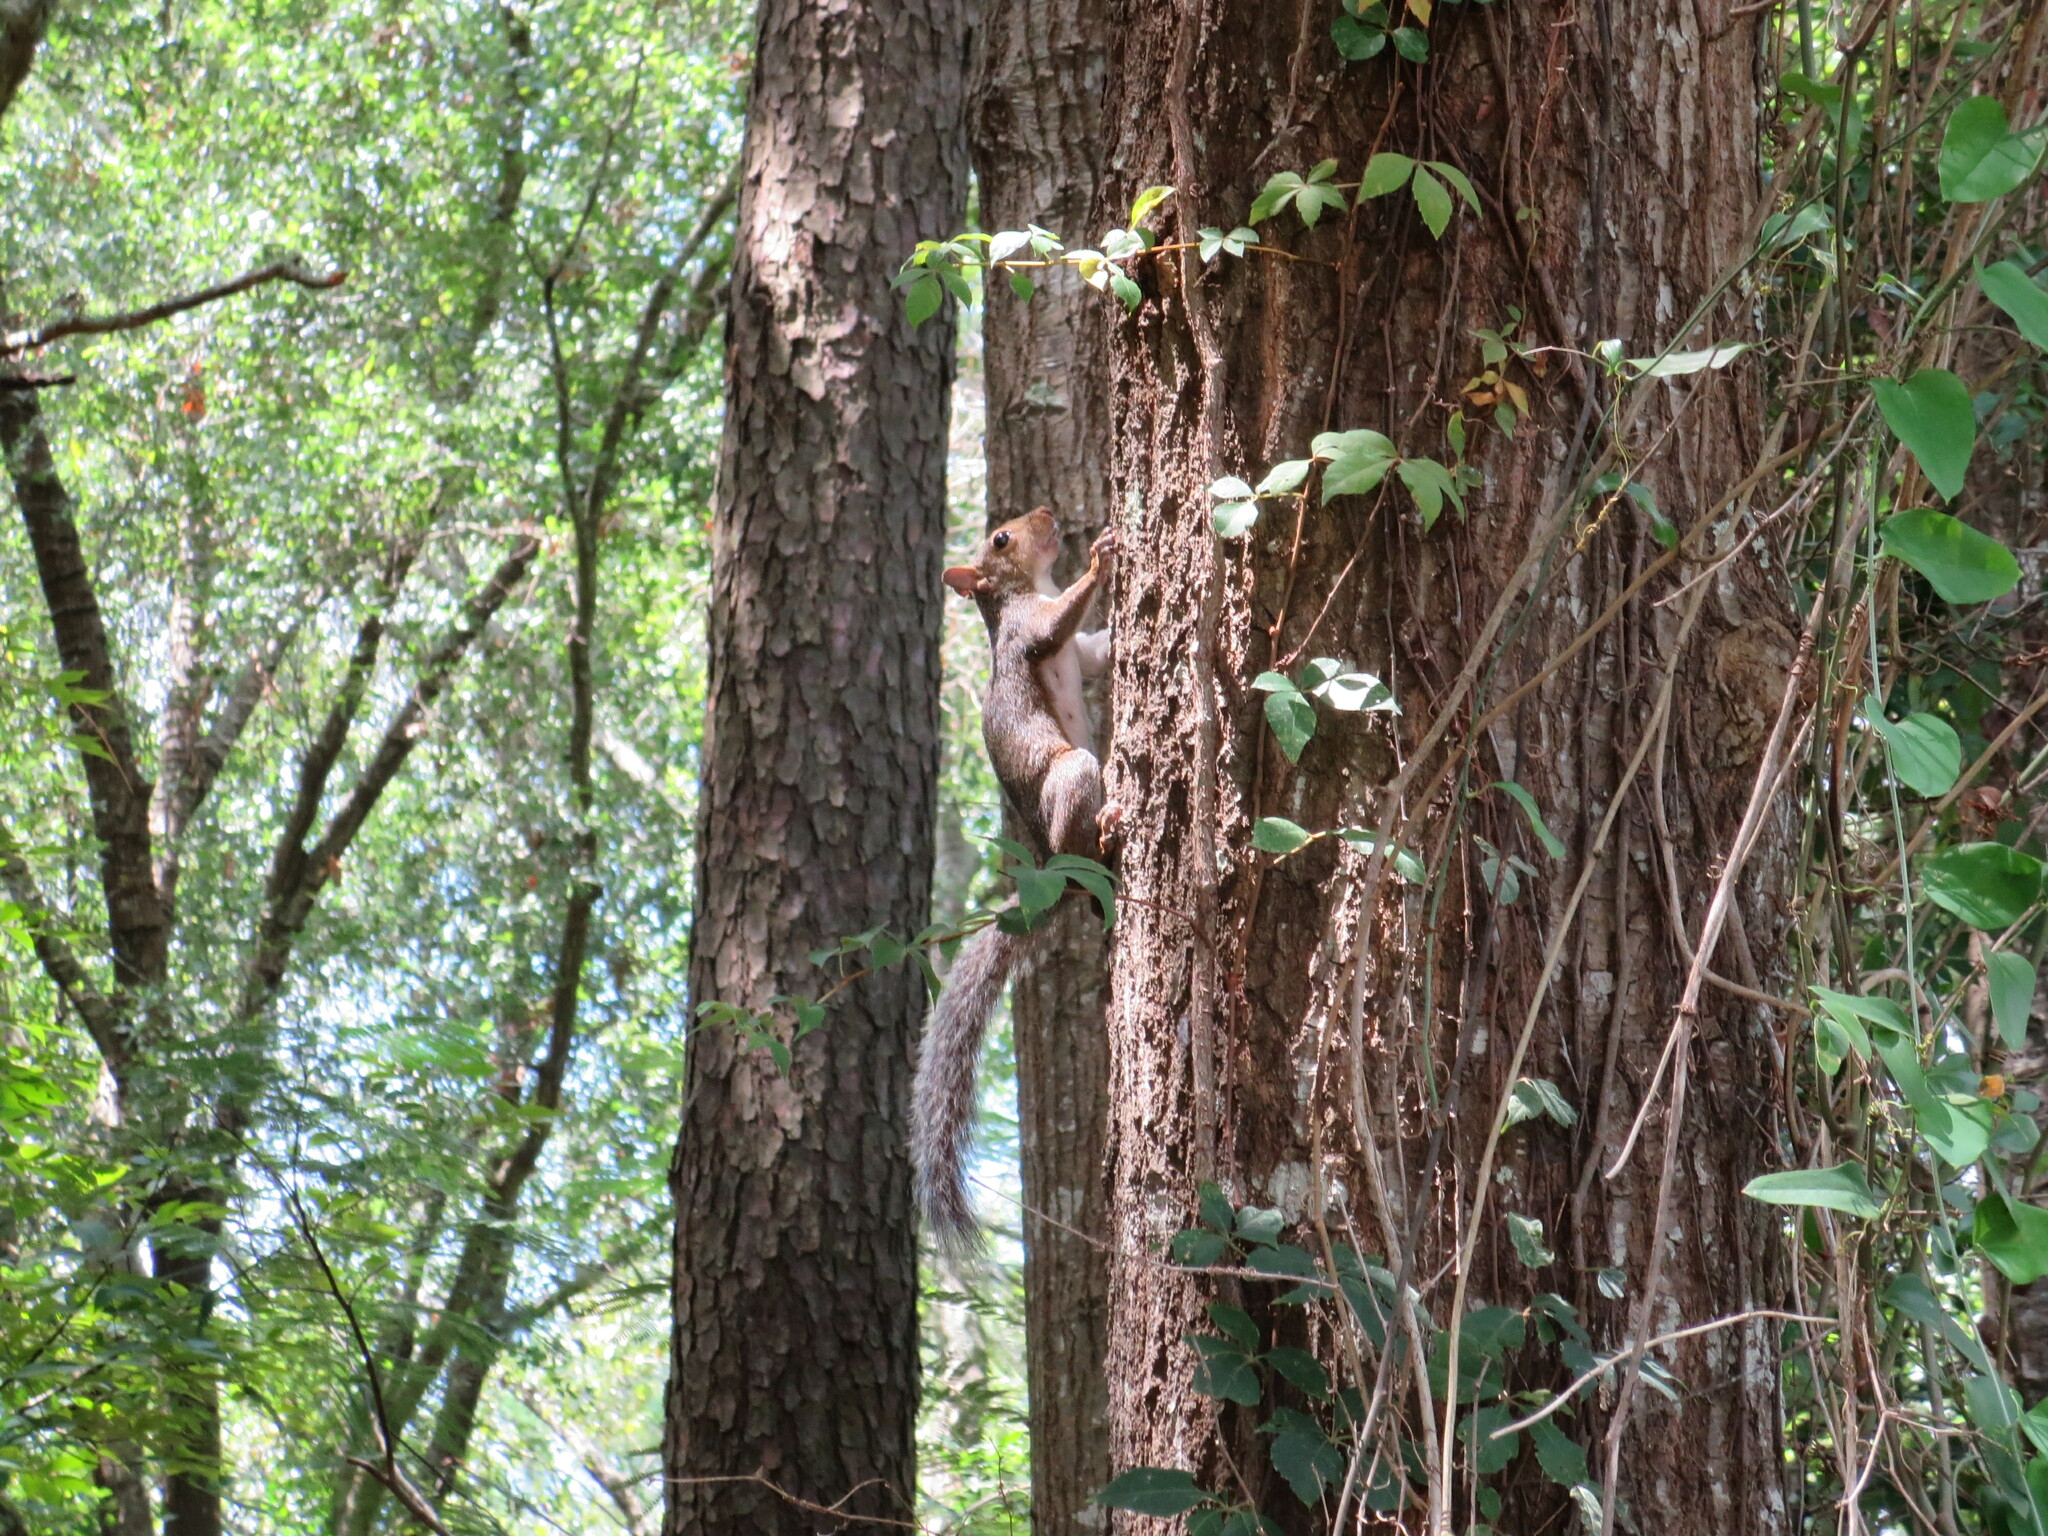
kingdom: Animalia
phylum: Chordata
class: Mammalia
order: Rodentia
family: Sciuridae
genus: Sciurus
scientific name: Sciurus carolinensis
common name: Eastern gray squirrel
